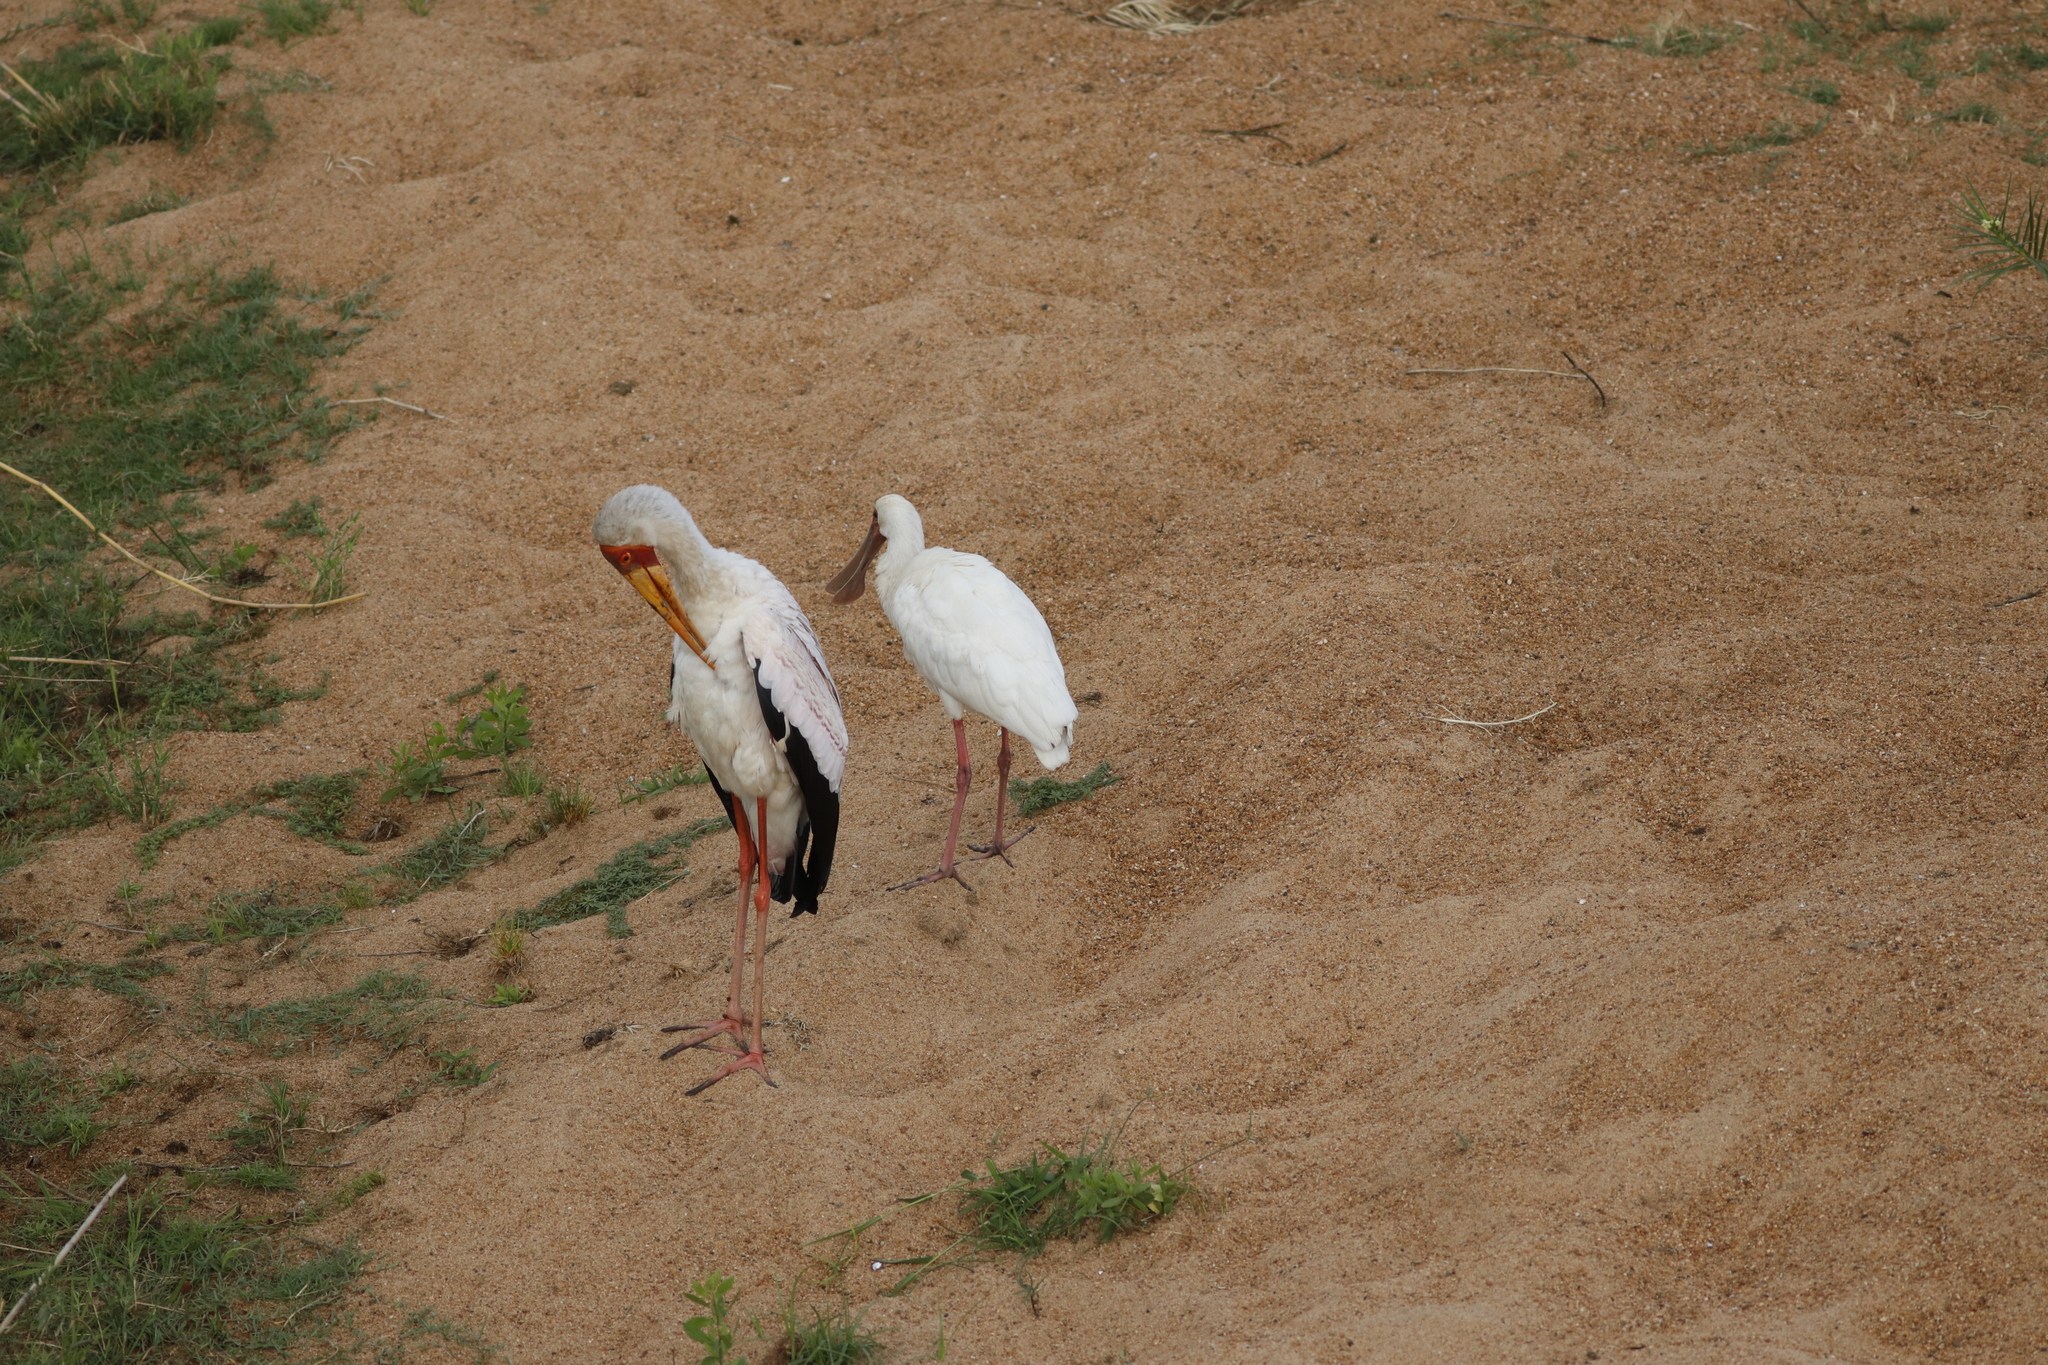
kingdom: Animalia
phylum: Chordata
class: Aves
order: Pelecaniformes
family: Threskiornithidae
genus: Platalea
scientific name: Platalea alba
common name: African spoonbill
